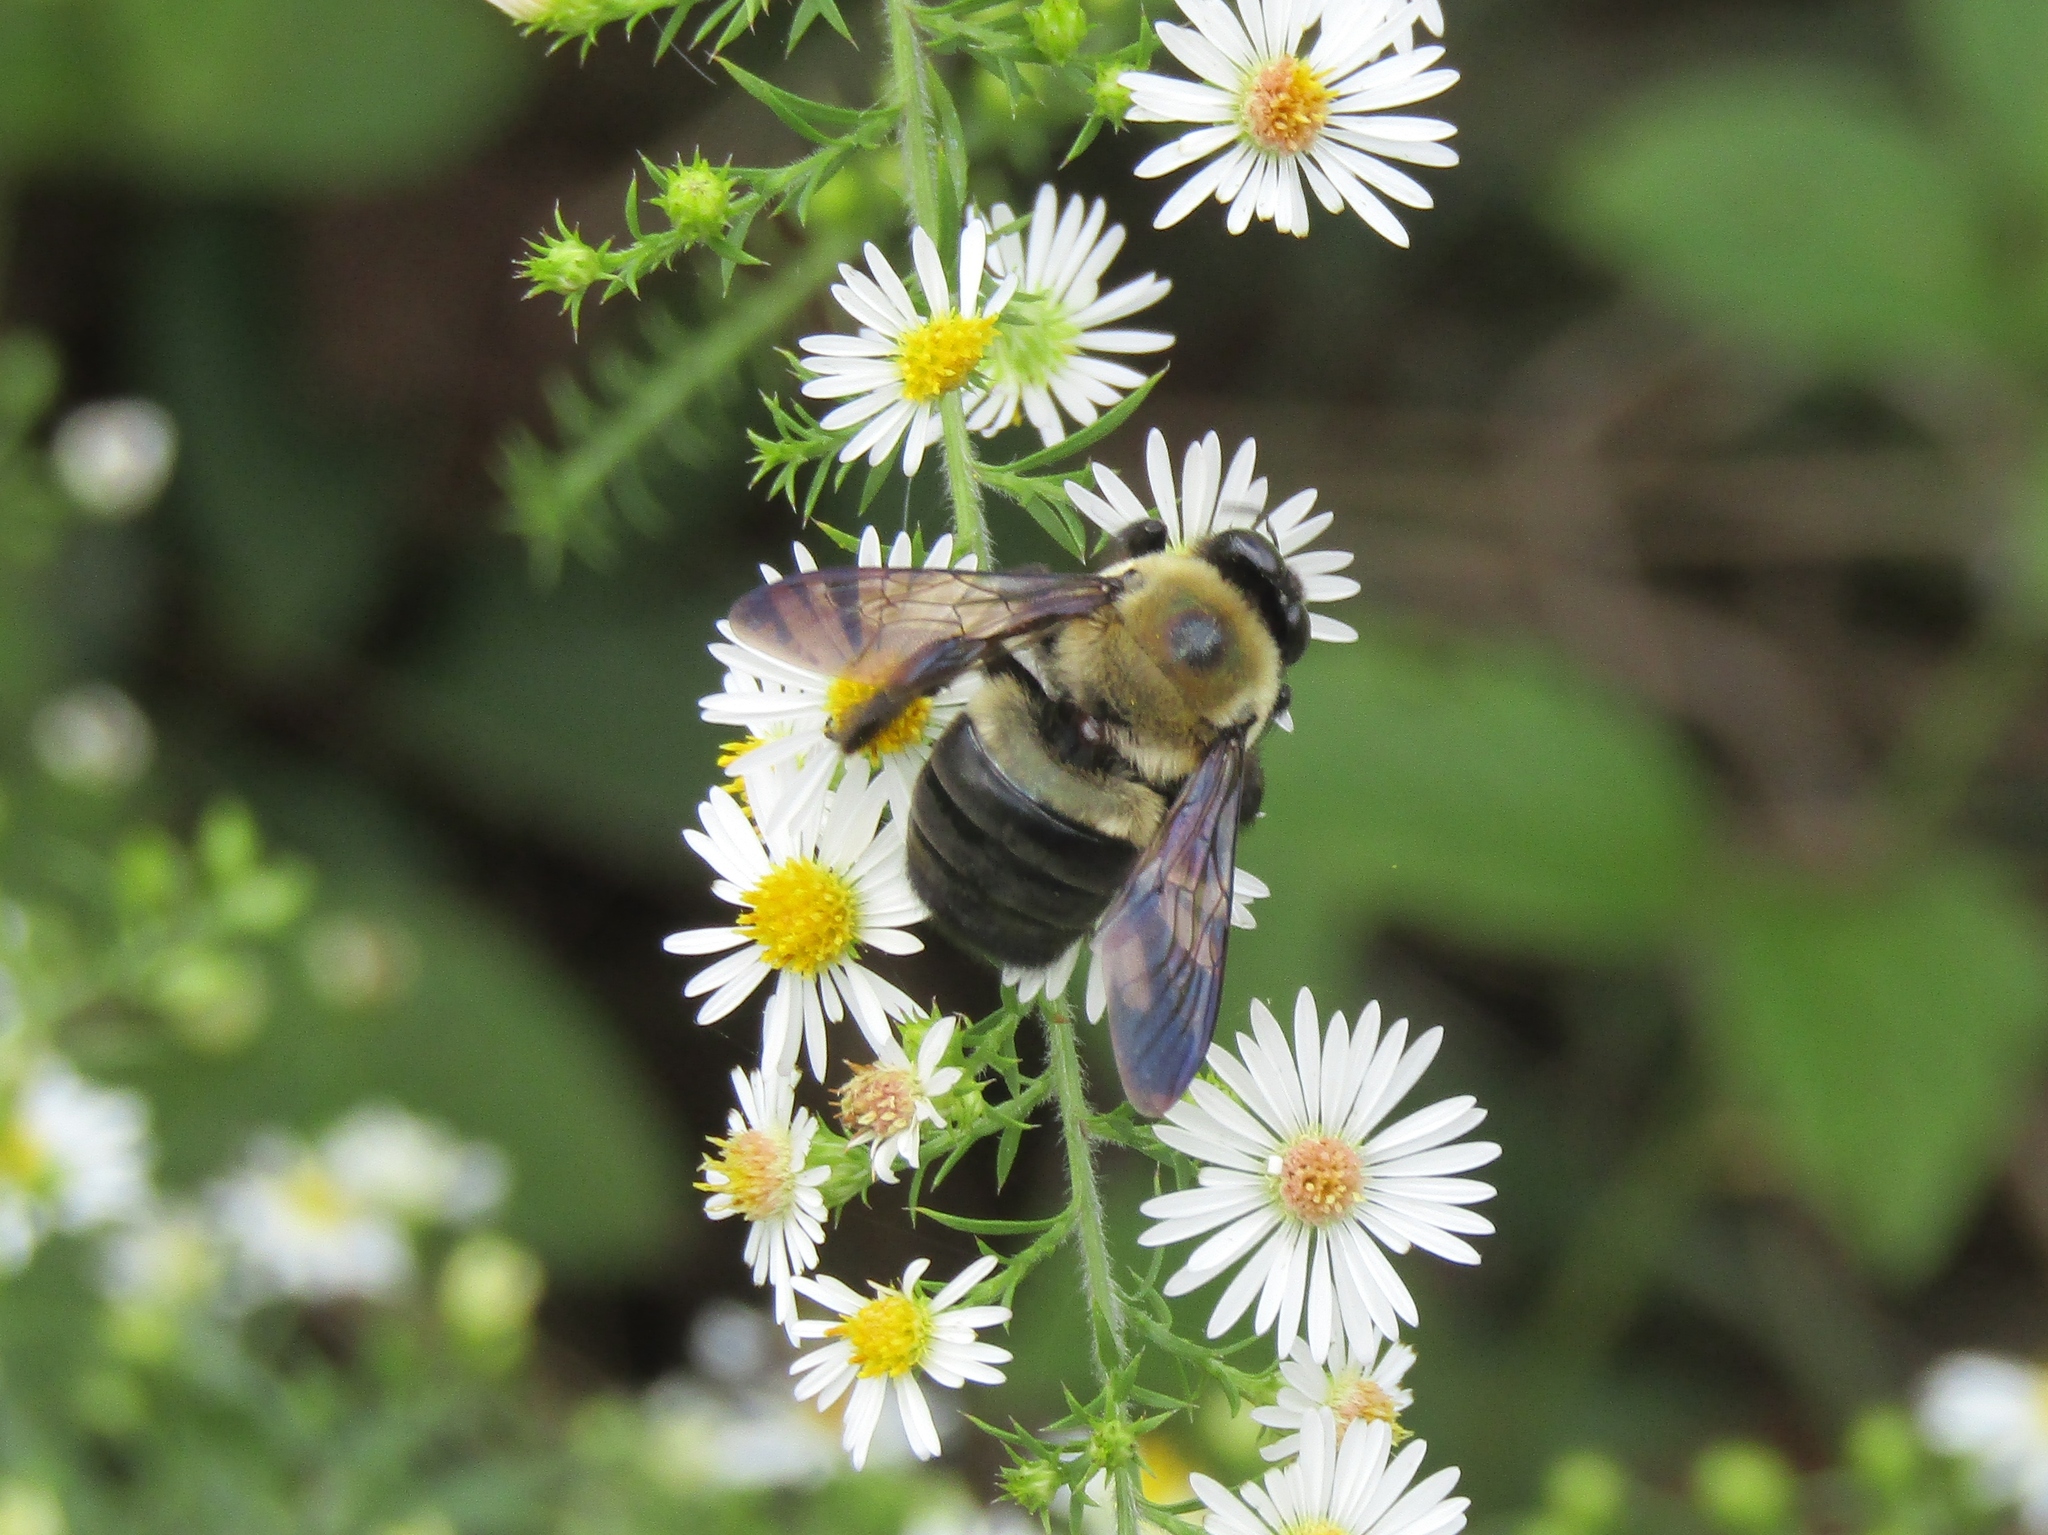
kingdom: Animalia
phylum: Arthropoda
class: Insecta
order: Hymenoptera
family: Apidae
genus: Xylocopa
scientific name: Xylocopa virginica
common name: Carpenter bee
